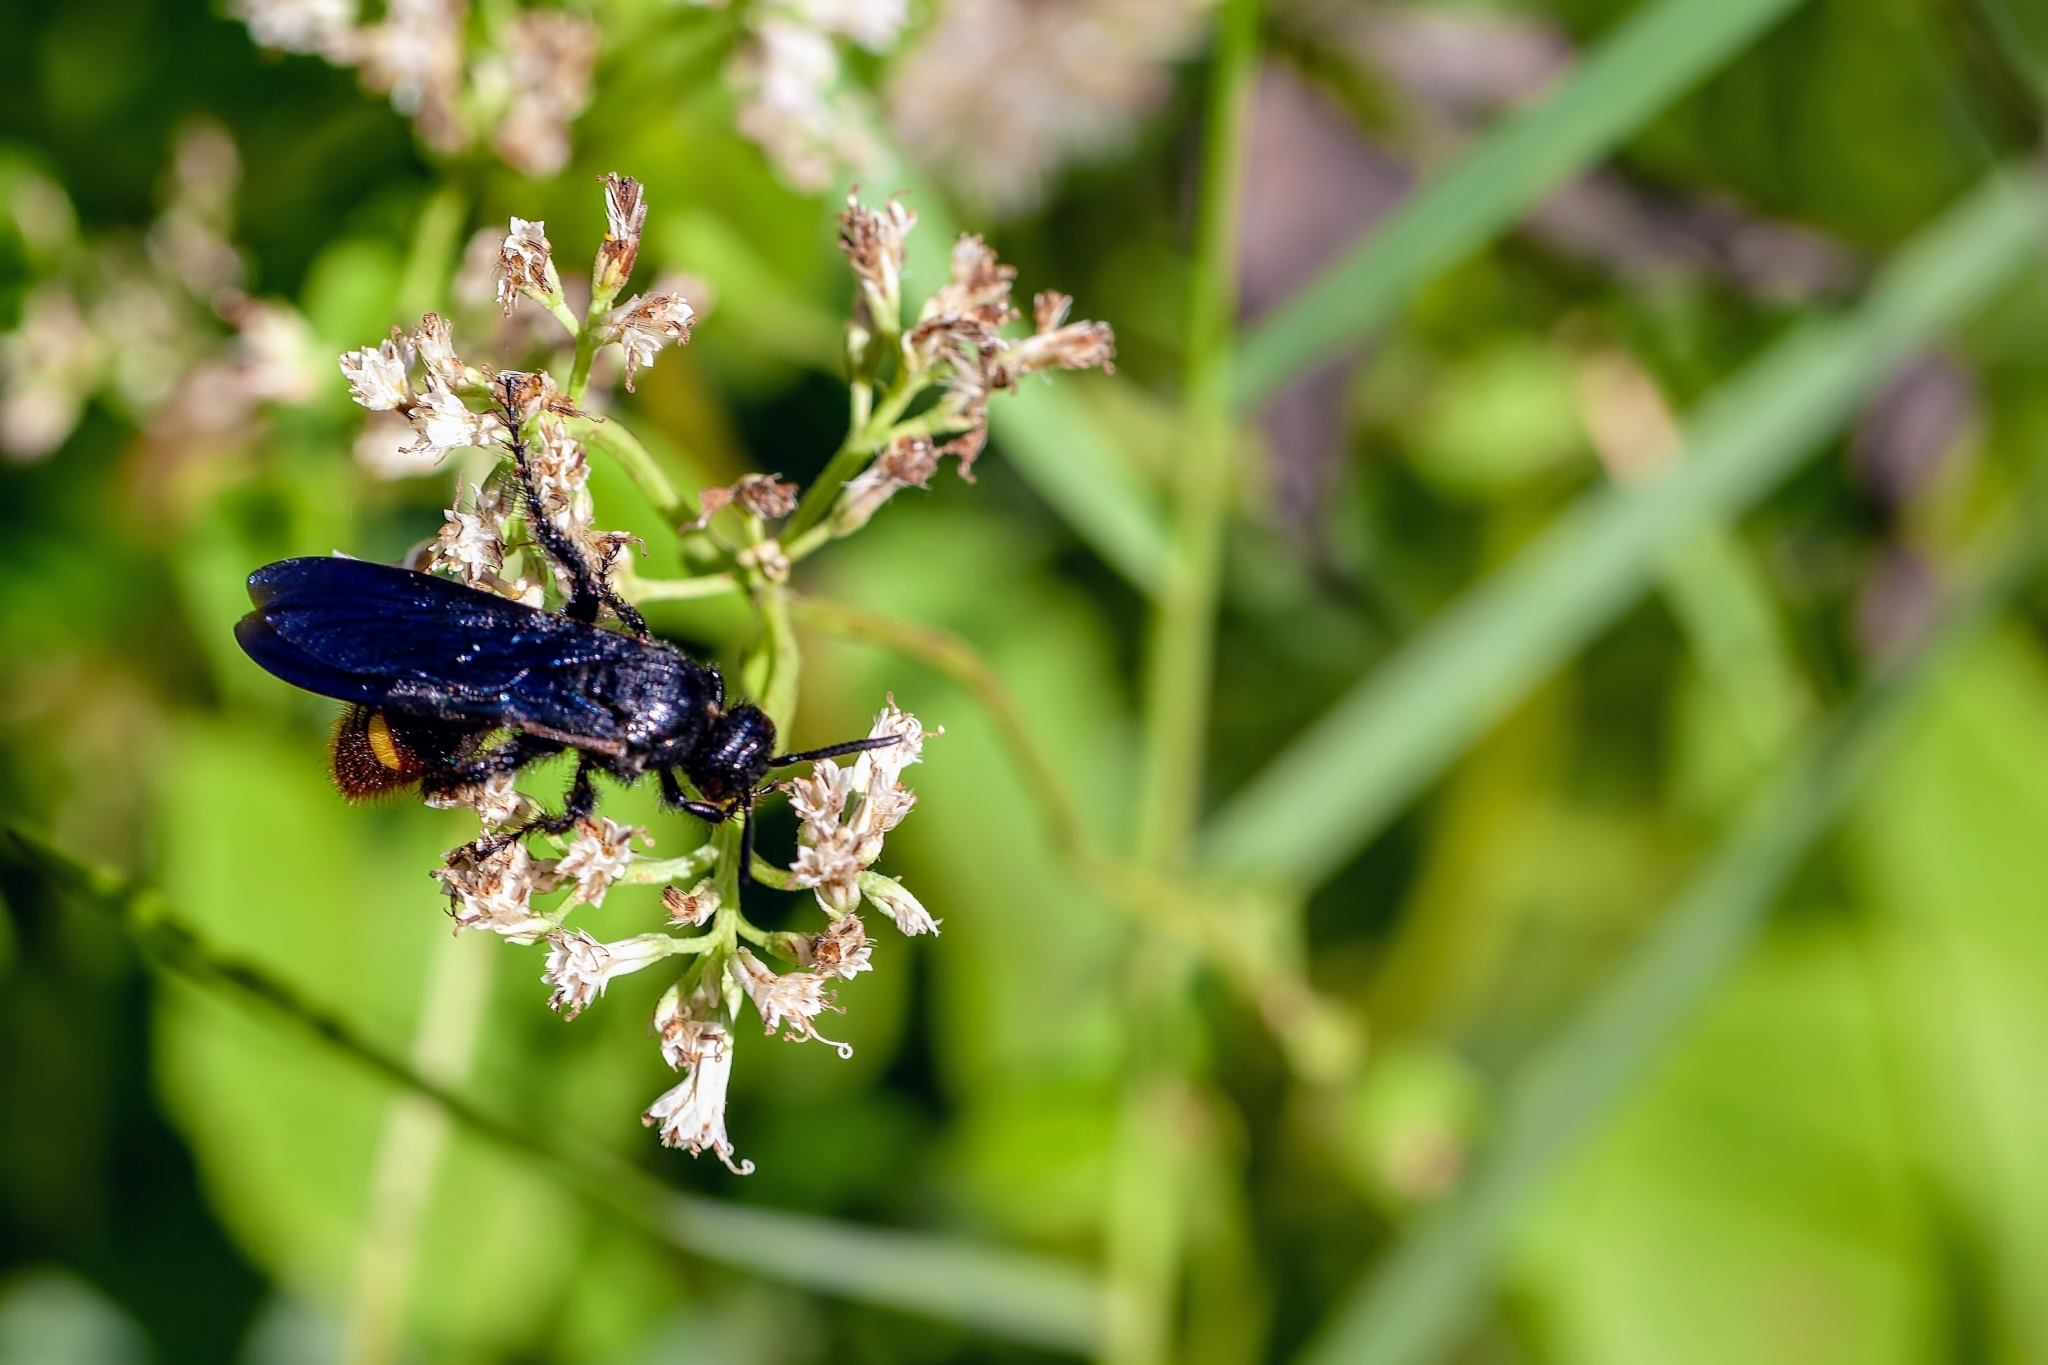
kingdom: Animalia
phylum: Arthropoda
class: Insecta
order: Hymenoptera
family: Scoliidae
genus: Scolia
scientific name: Scolia dubia
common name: Blue-winged scoliid wasp
